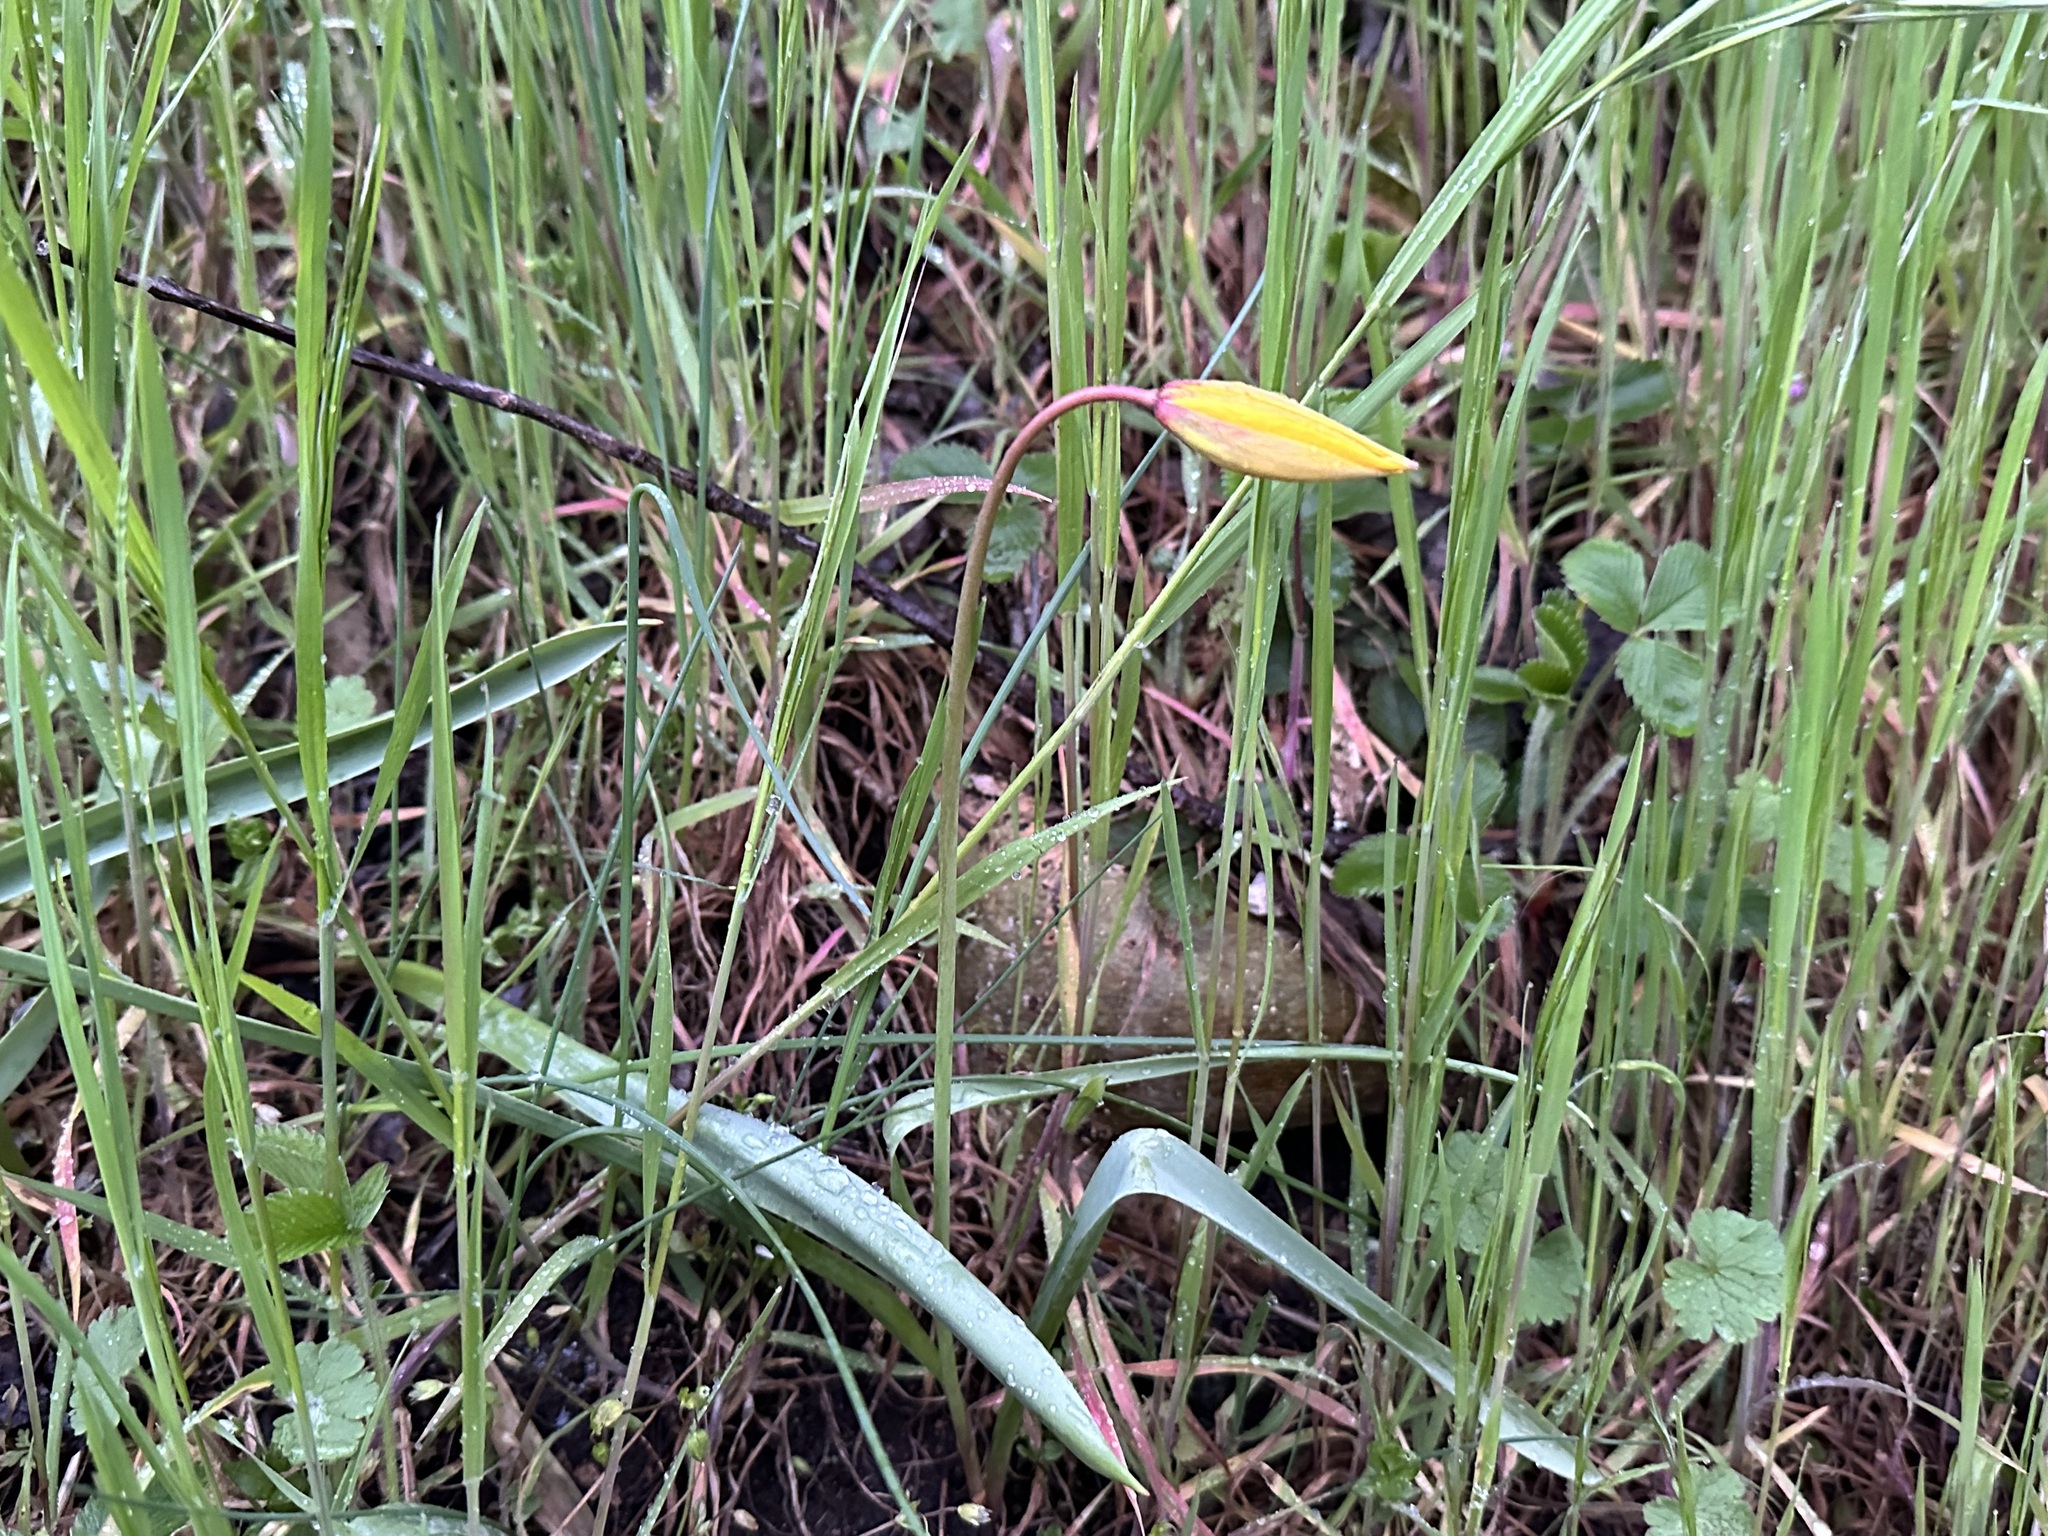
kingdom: Plantae
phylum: Tracheophyta
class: Liliopsida
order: Liliales
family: Liliaceae
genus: Tulipa
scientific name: Tulipa sylvestris
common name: Wild tulip
